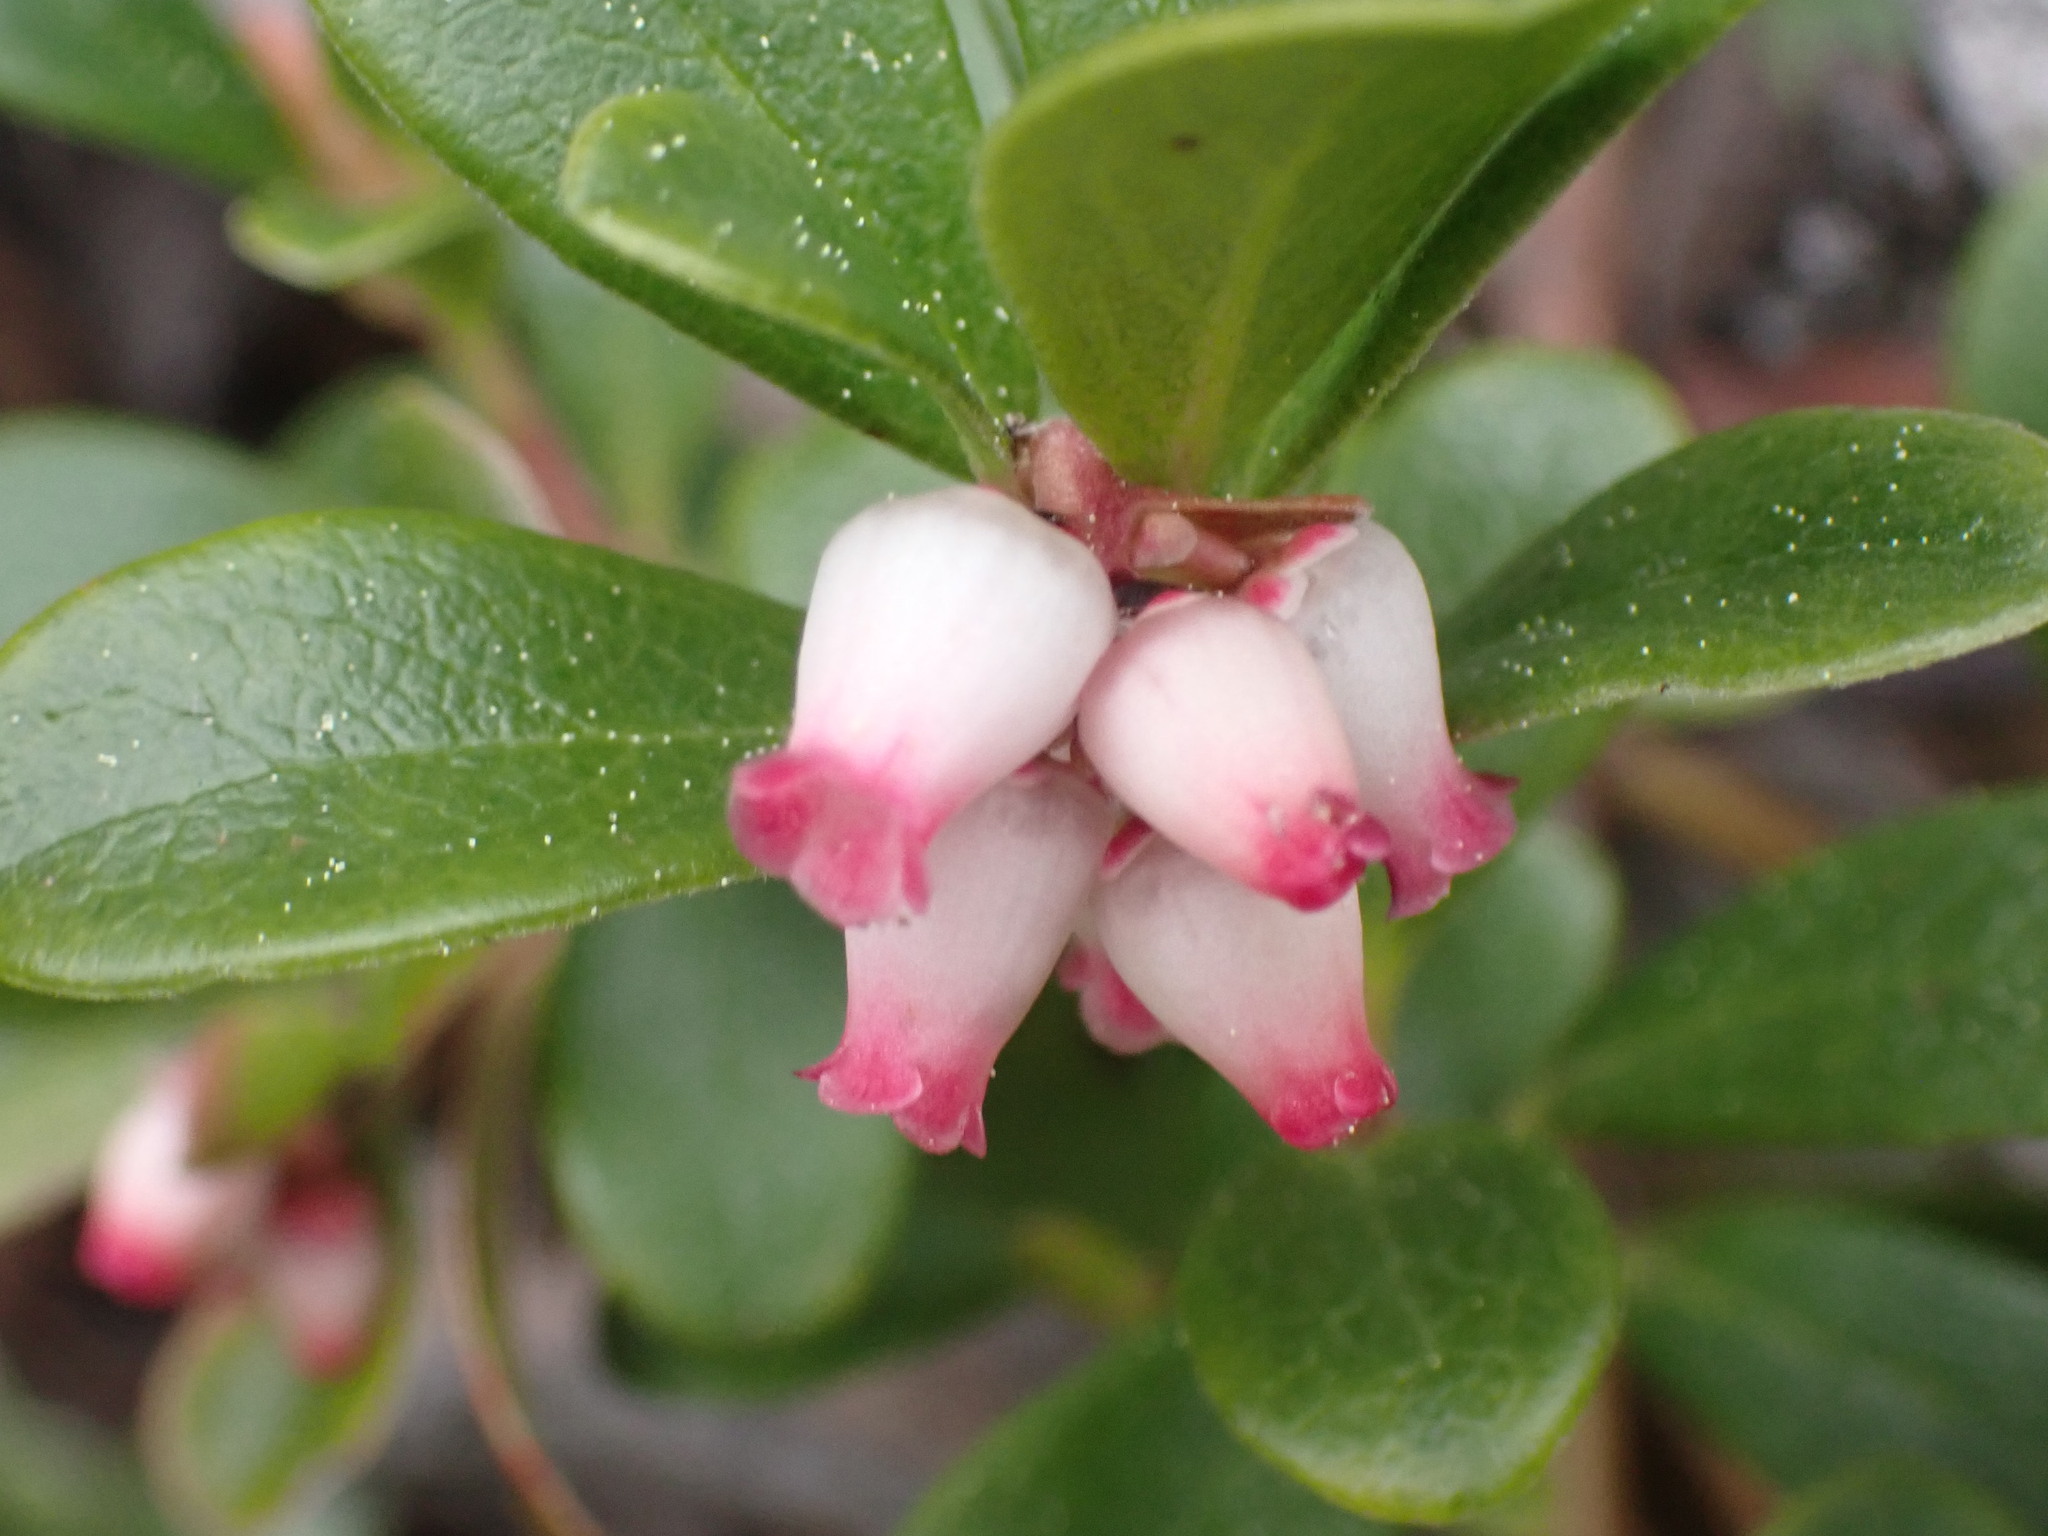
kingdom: Plantae
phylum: Tracheophyta
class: Magnoliopsida
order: Ericales
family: Ericaceae
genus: Arctostaphylos
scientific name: Arctostaphylos uva-ursi
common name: Bearberry
